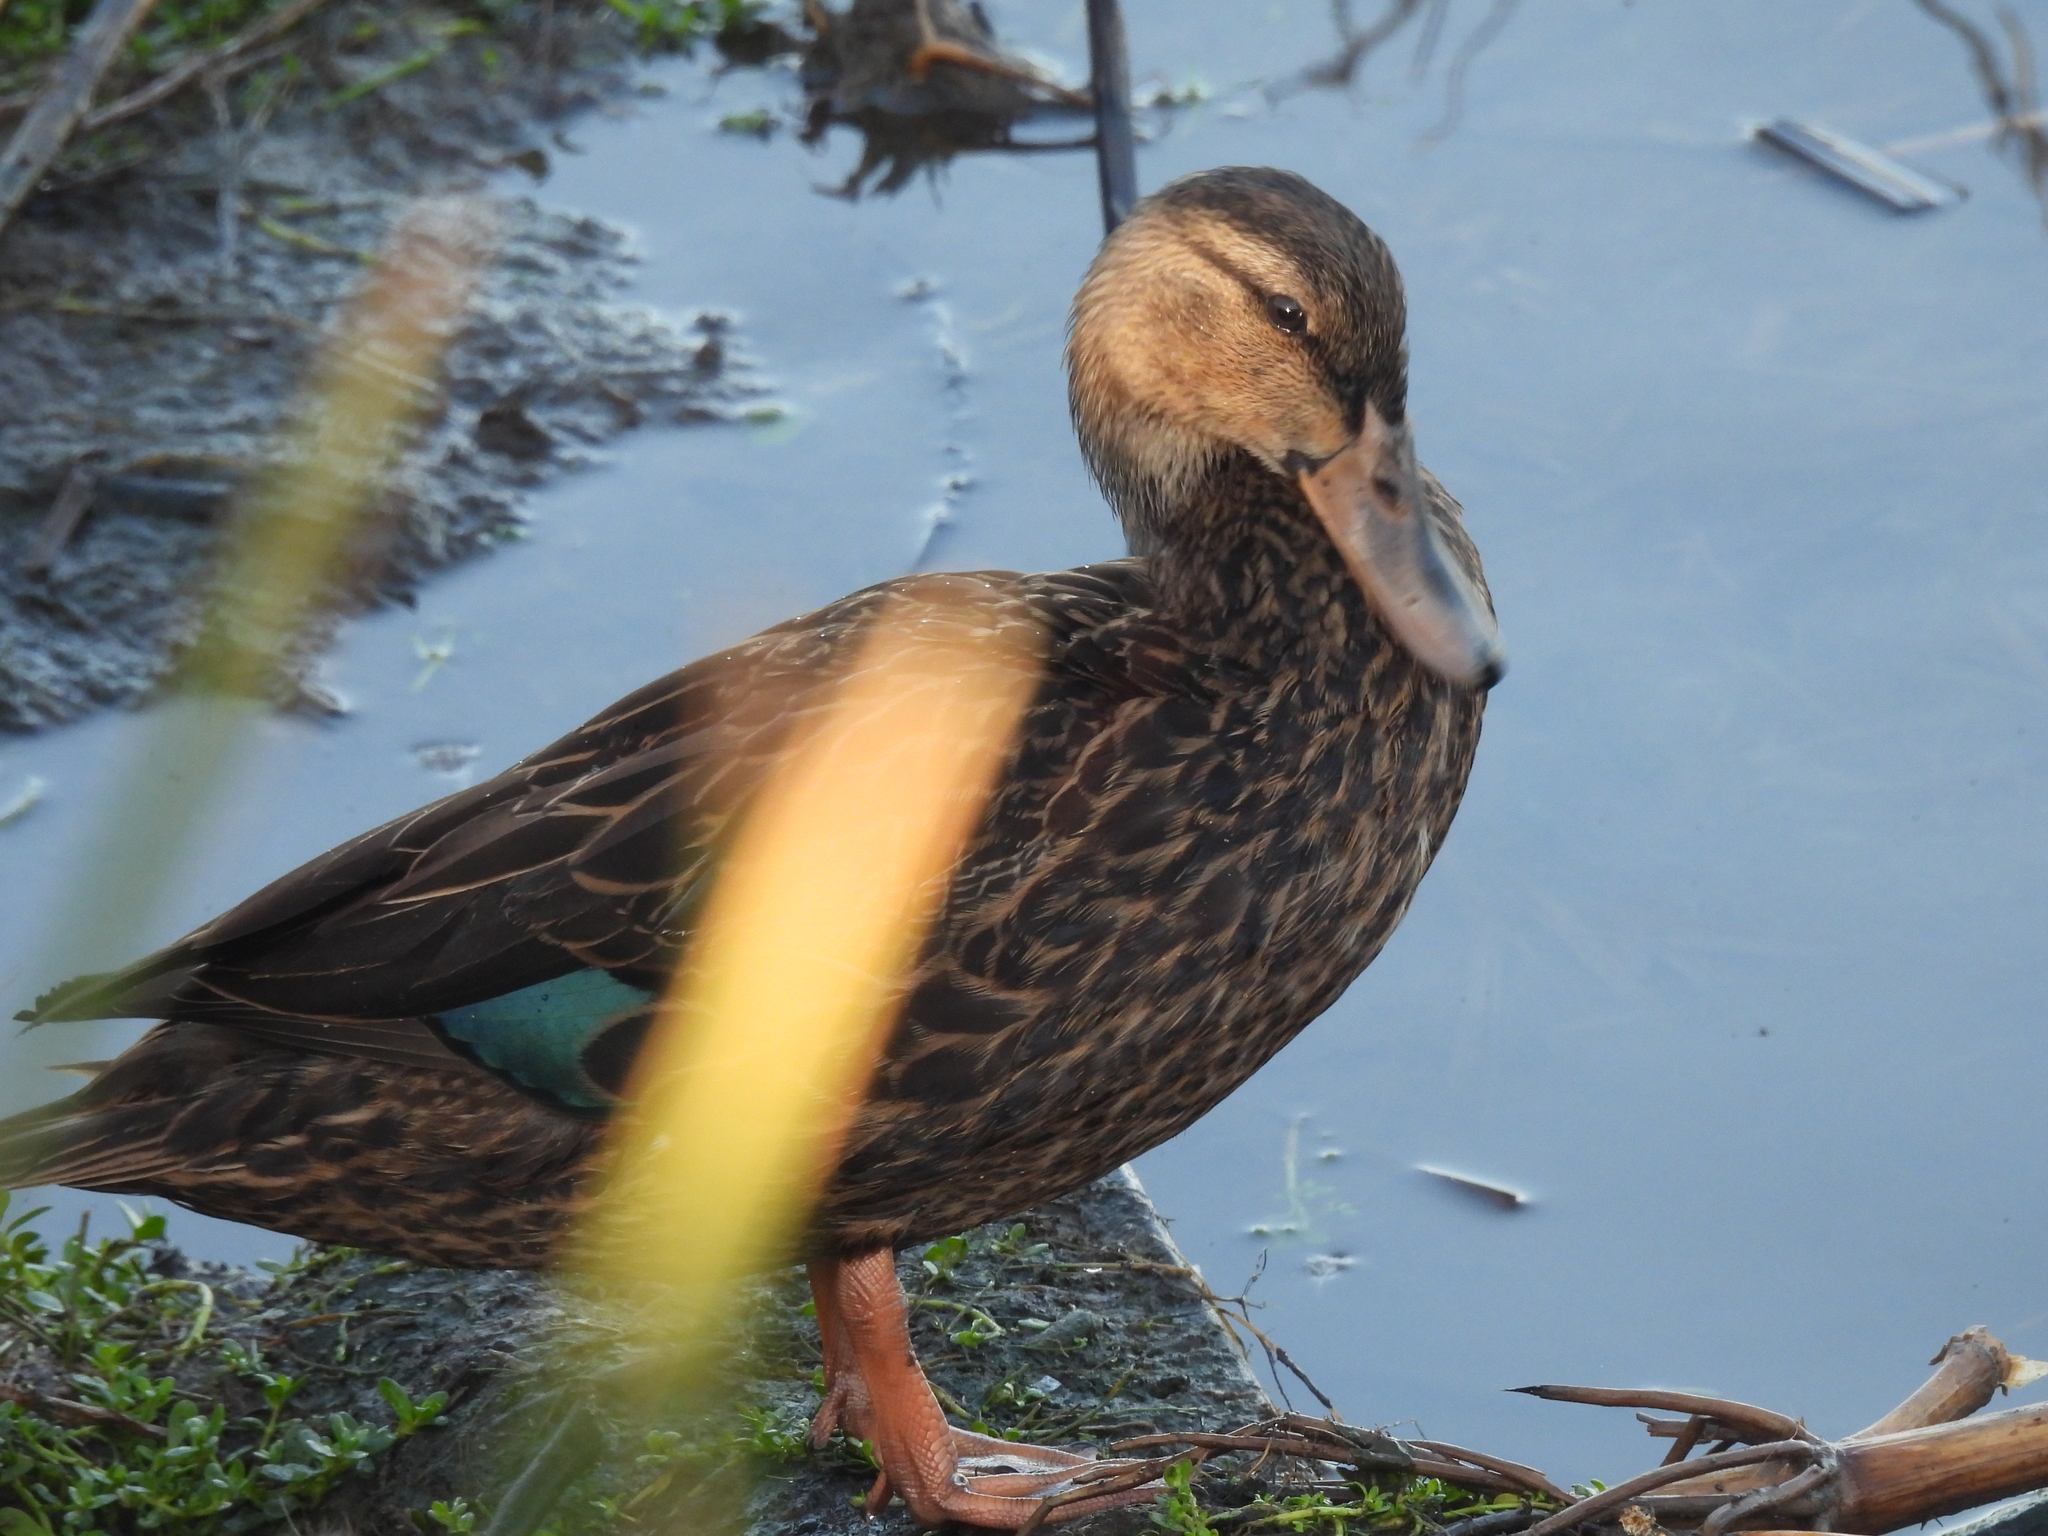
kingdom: Animalia
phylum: Chordata
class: Aves
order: Anseriformes
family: Anatidae
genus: Anas
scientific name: Anas fulvigula
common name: Mottled duck
